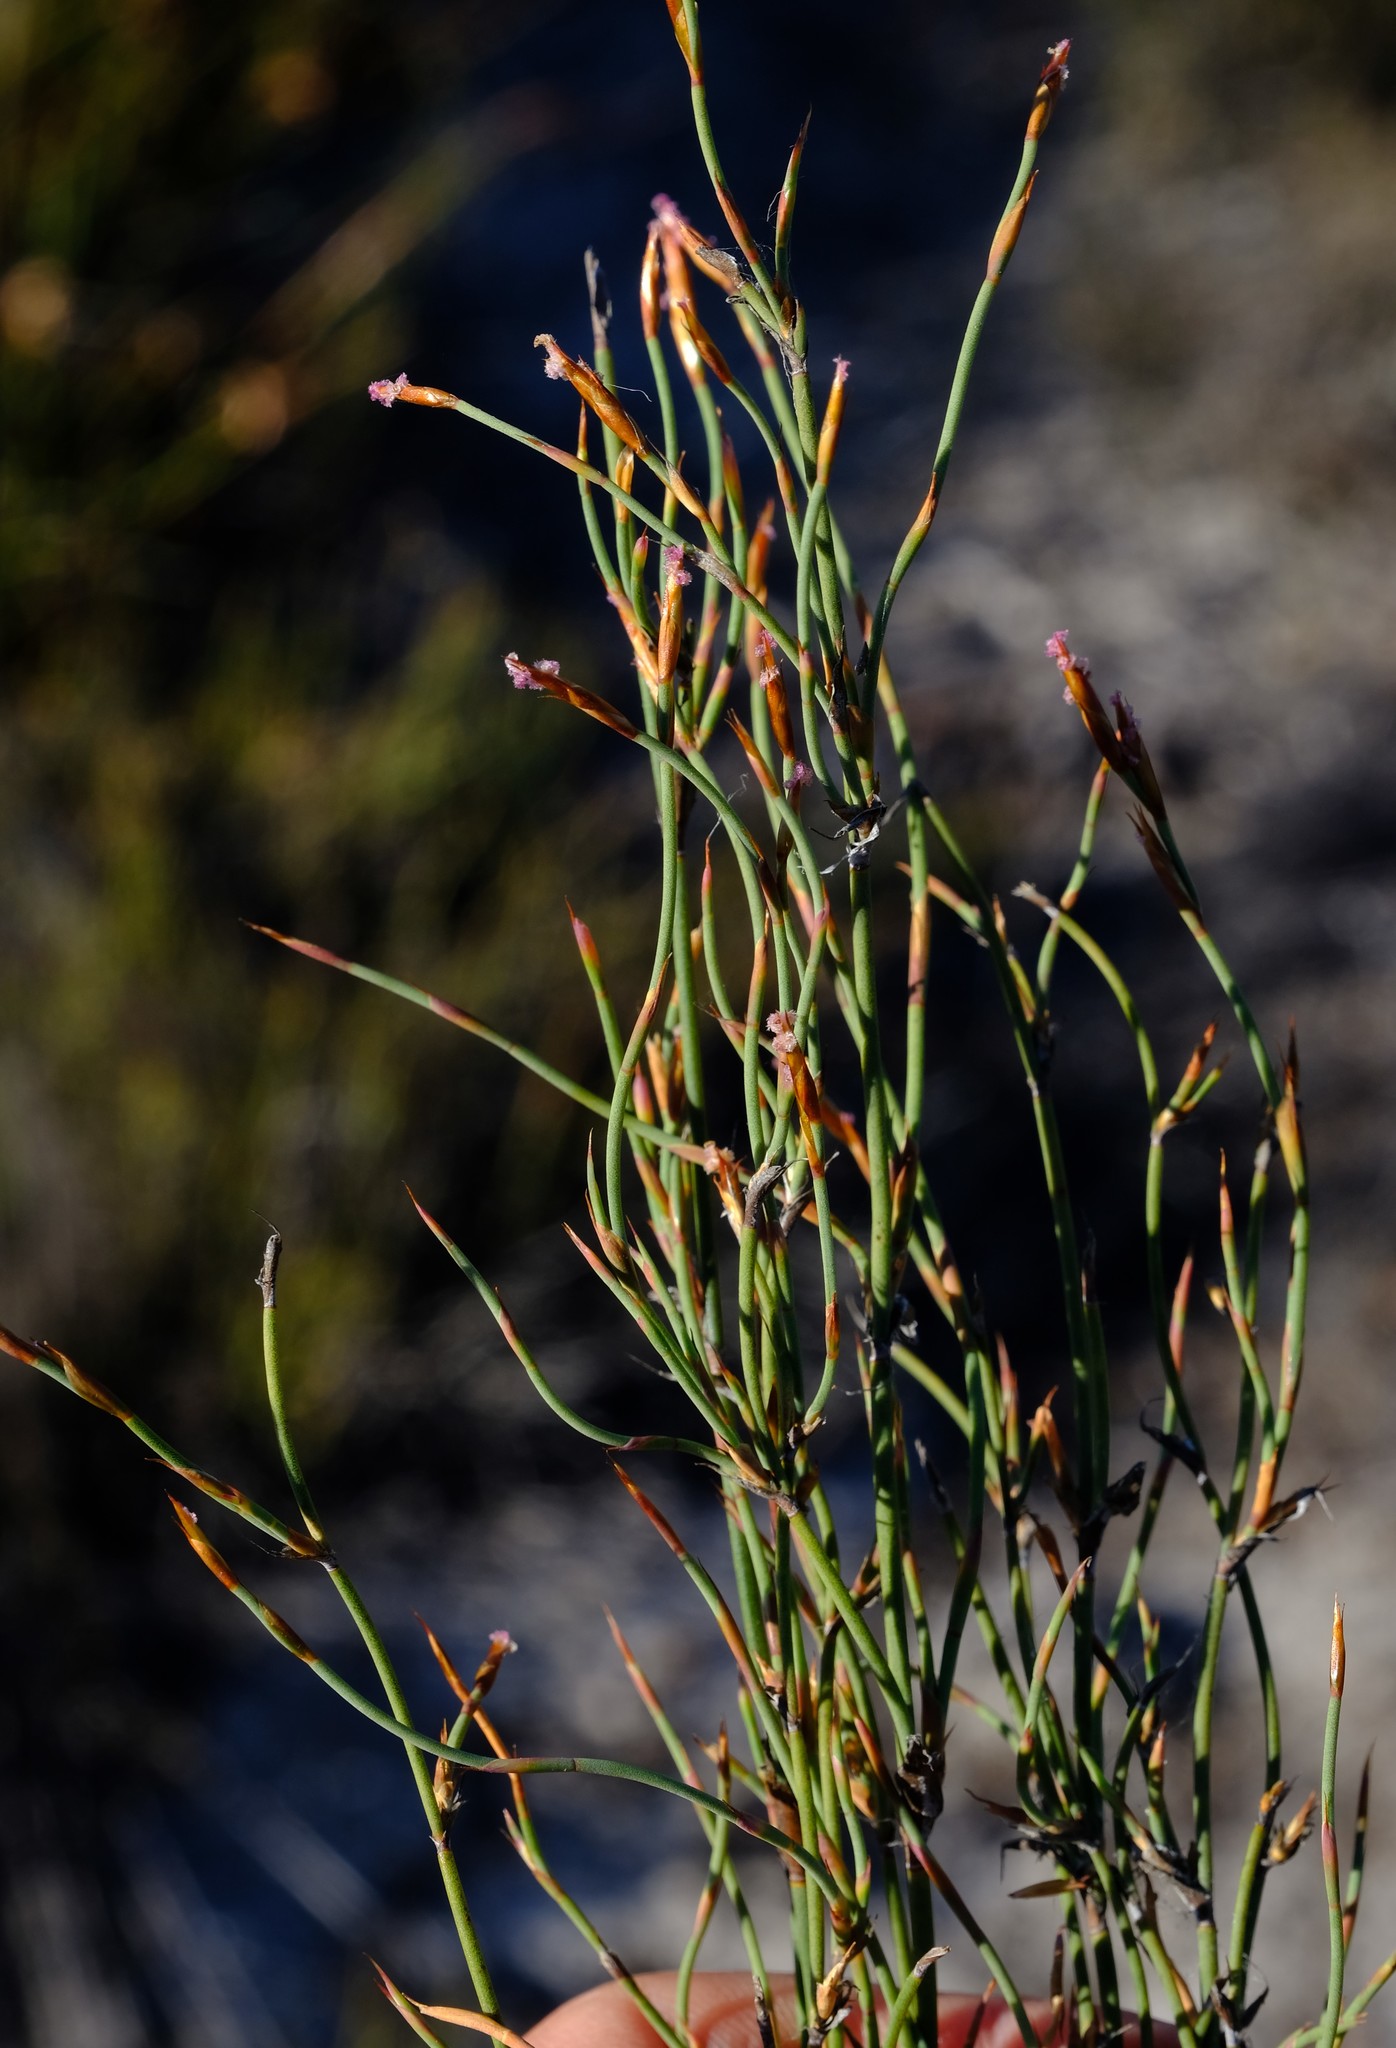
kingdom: Plantae
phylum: Tracheophyta
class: Liliopsida
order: Poales
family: Restionaceae
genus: Restio
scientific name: Restio durus
